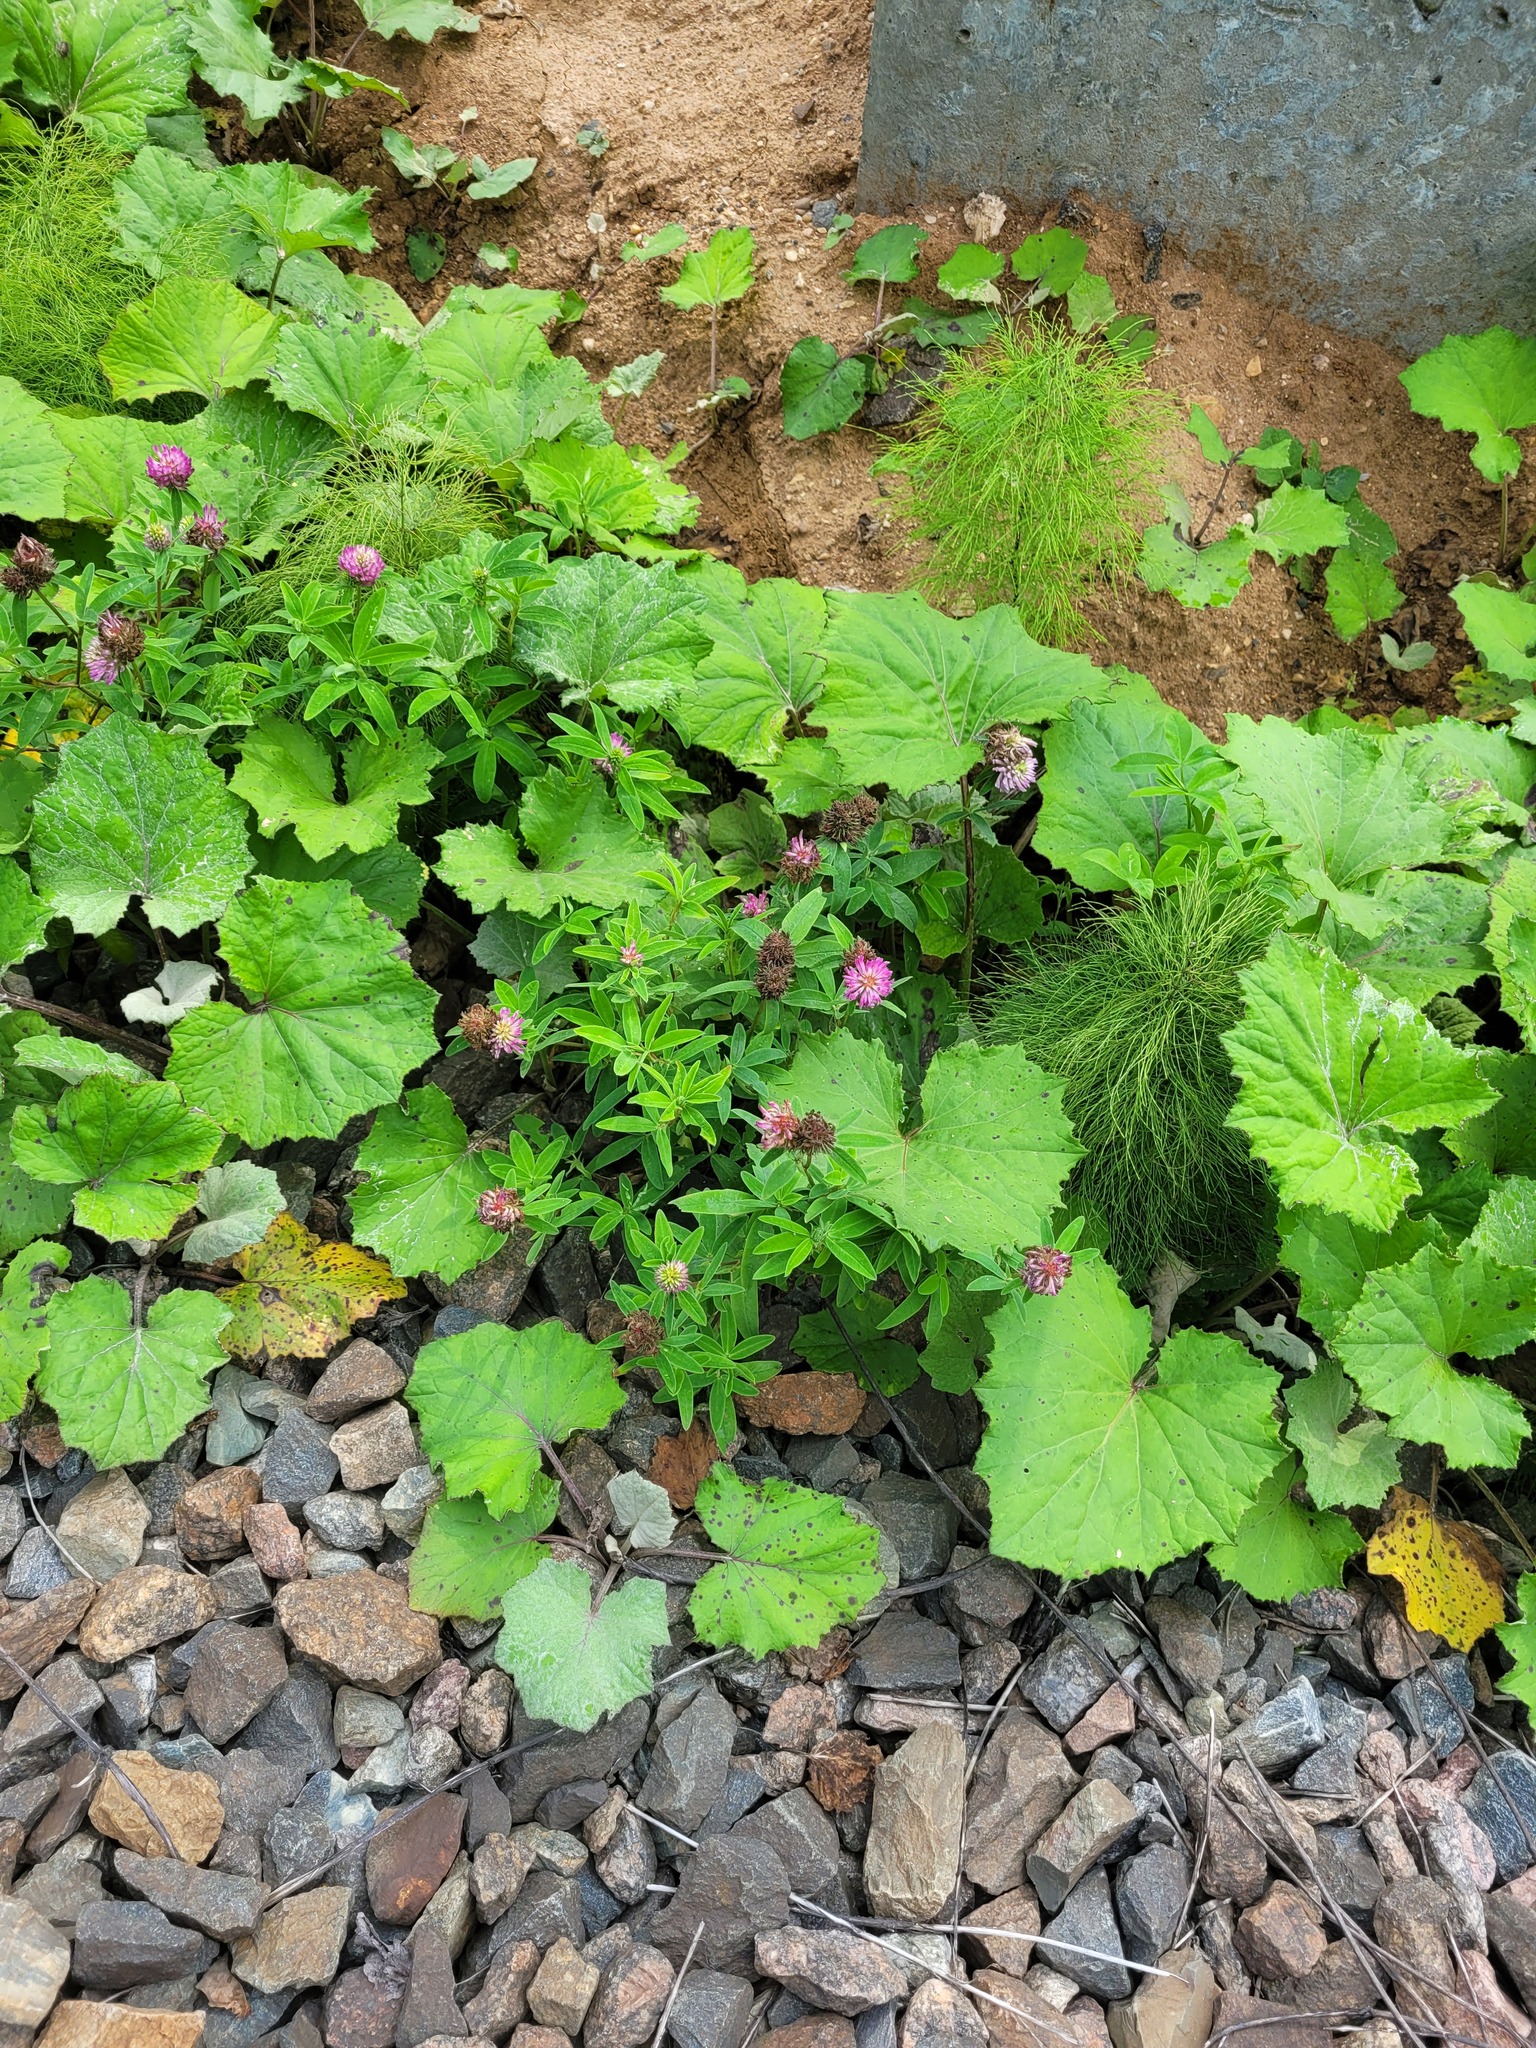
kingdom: Plantae
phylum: Tracheophyta
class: Magnoliopsida
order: Fabales
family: Fabaceae
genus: Trifolium
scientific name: Trifolium medium
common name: Zigzag clover
